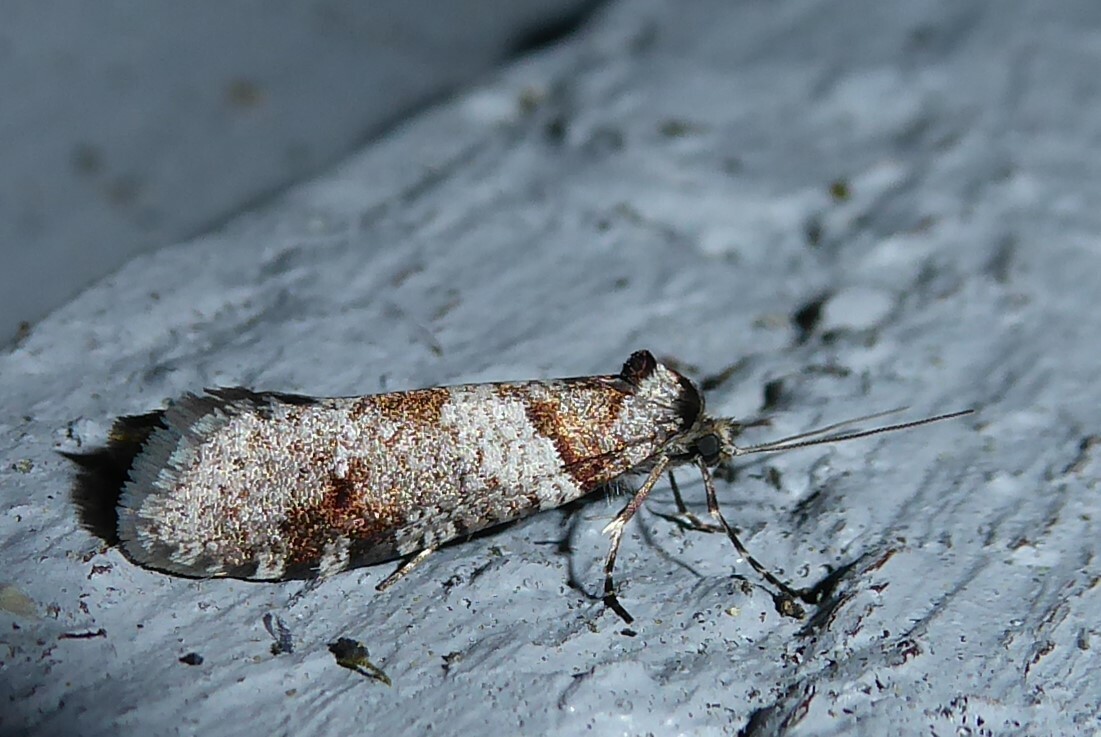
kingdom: Animalia
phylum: Arthropoda
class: Insecta
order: Lepidoptera
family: Psychidae
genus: Lepidoscia
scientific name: Lepidoscia heliochares
